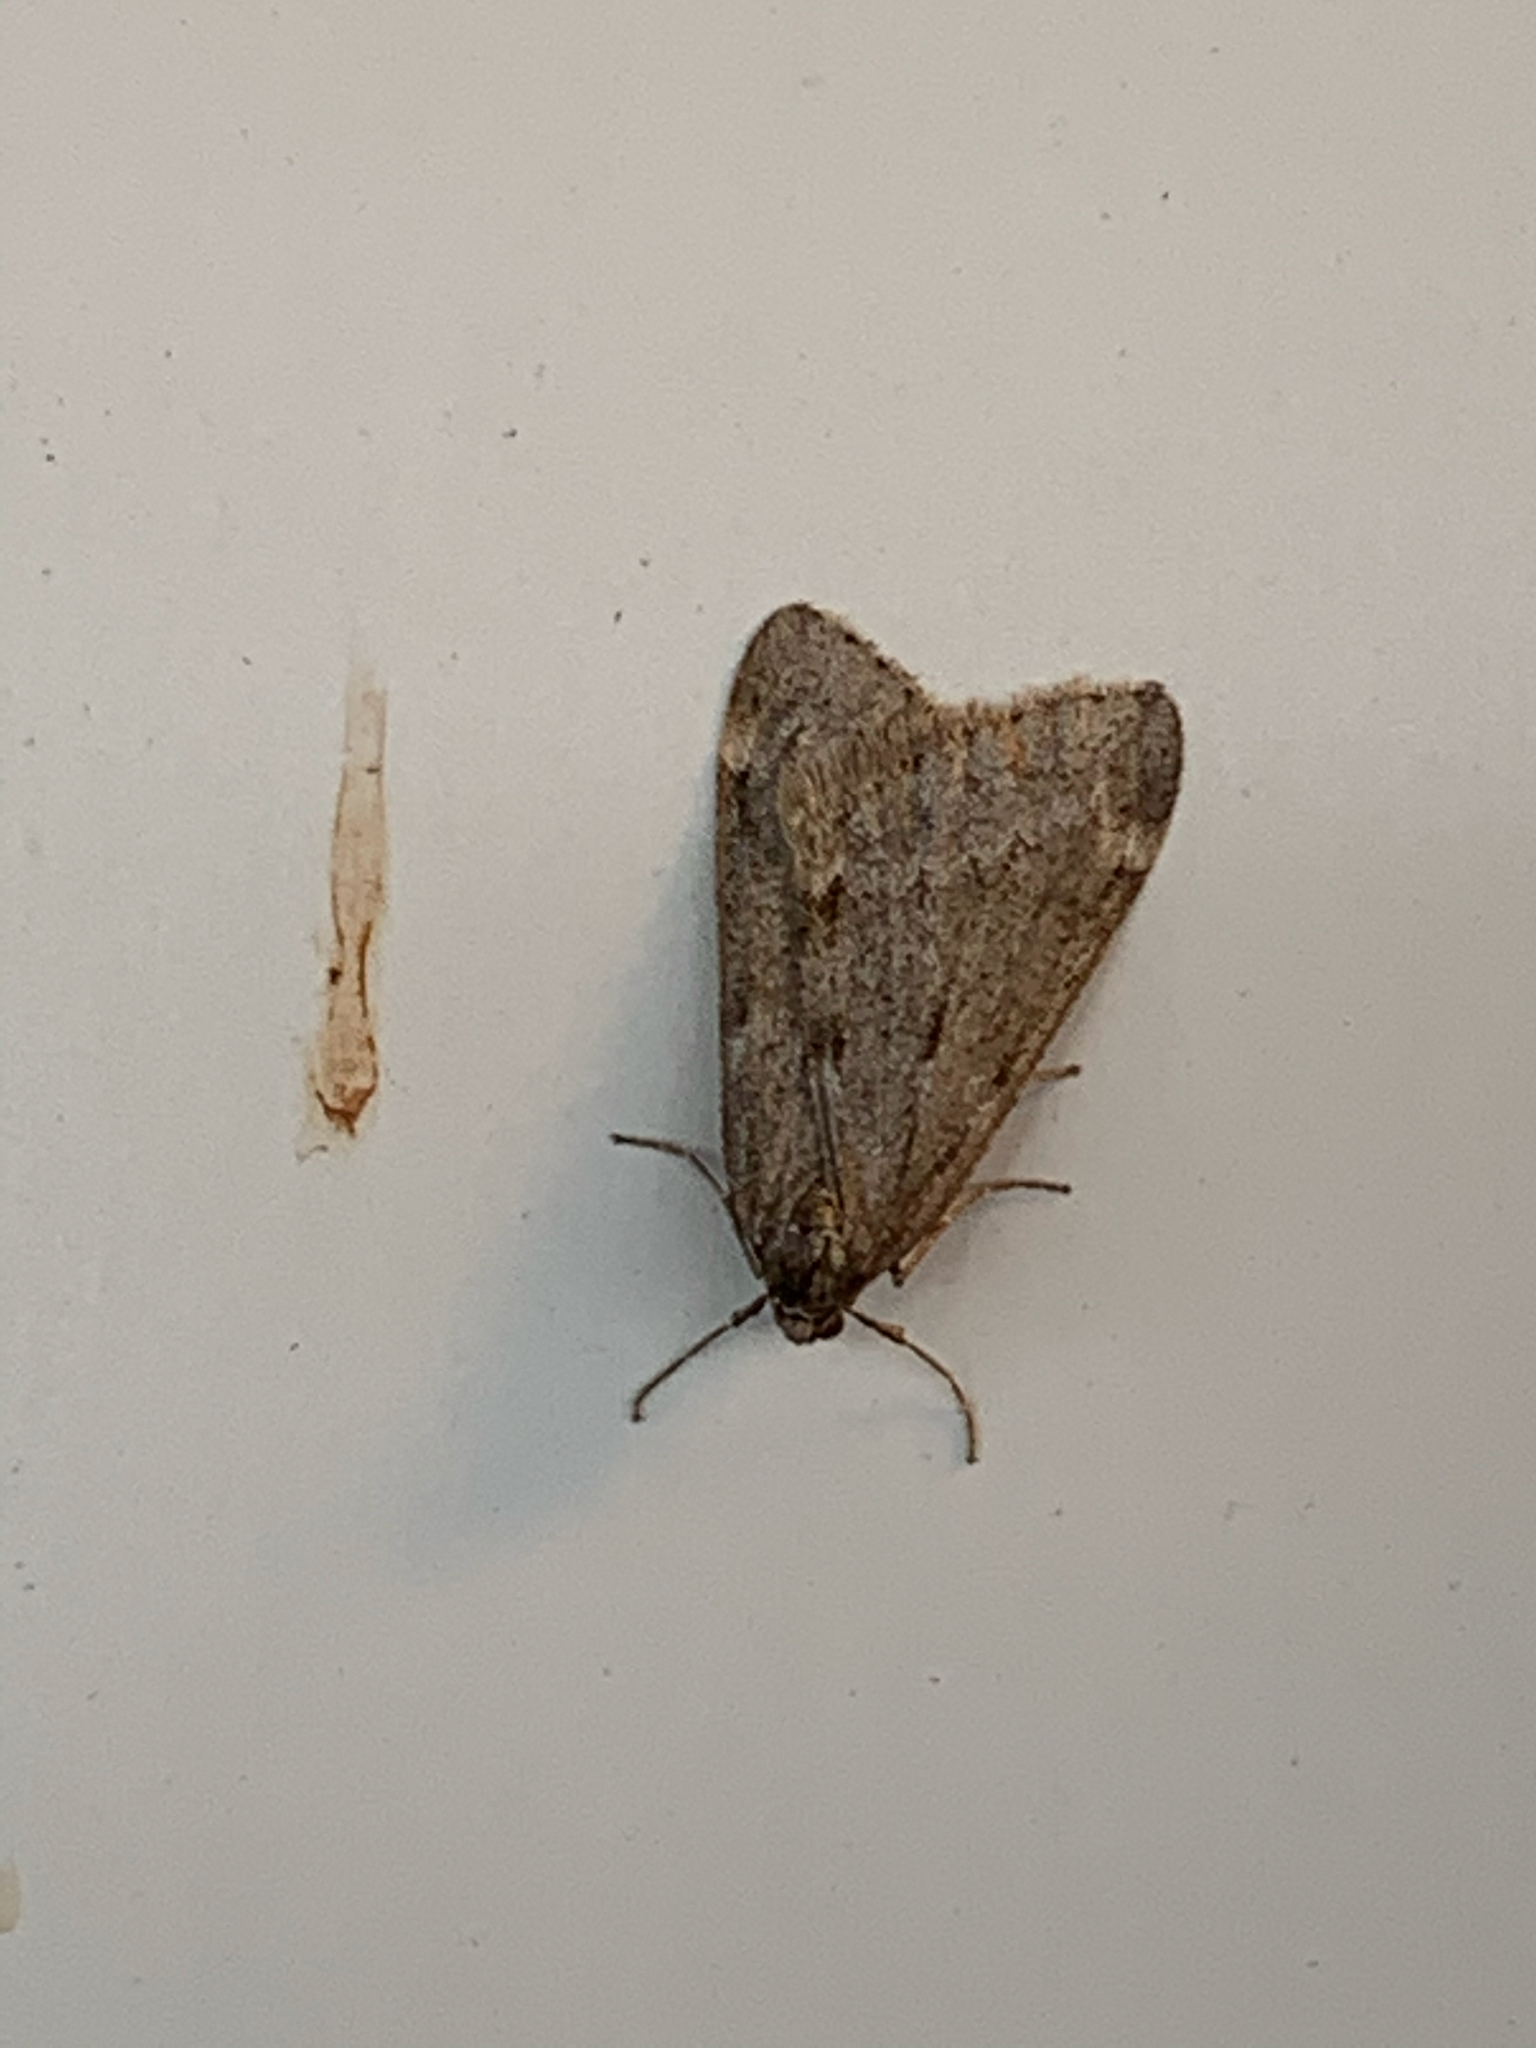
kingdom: Animalia
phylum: Arthropoda
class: Insecta
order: Lepidoptera
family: Geometridae
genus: Alsophila
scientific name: Alsophila pometaria
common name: Fall cankerworm
